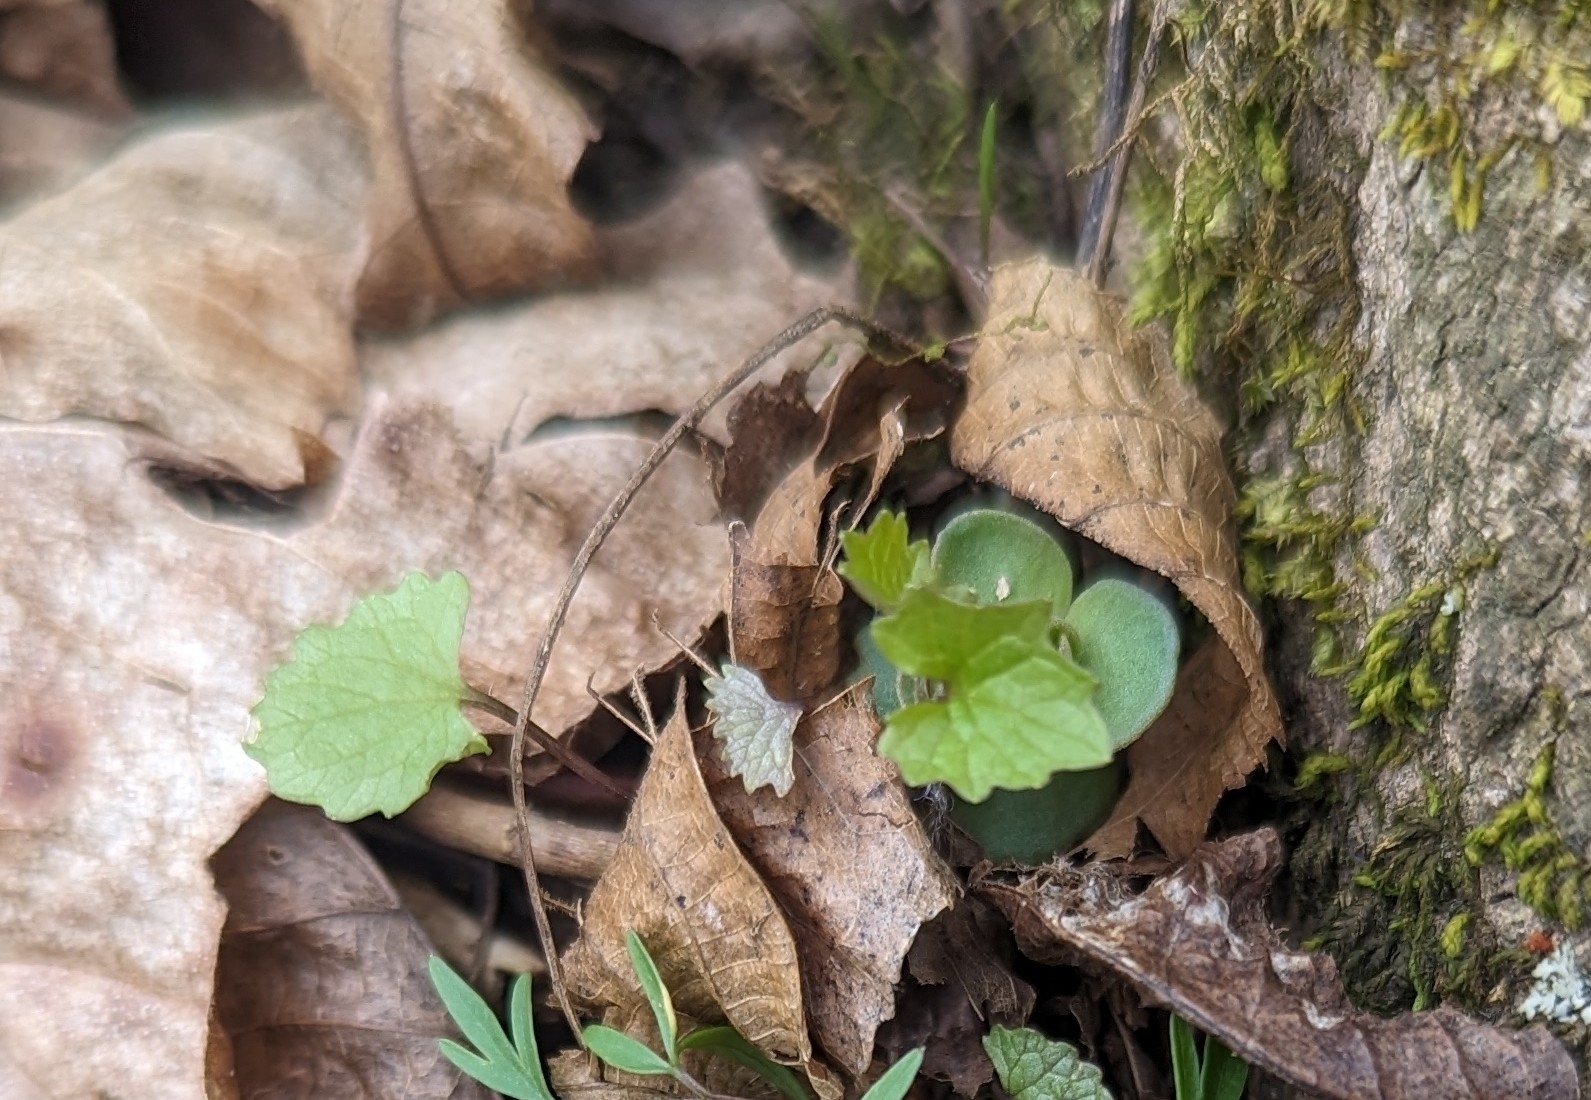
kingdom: Plantae
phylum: Tracheophyta
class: Magnoliopsida
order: Brassicales
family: Brassicaceae
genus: Alliaria
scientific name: Alliaria petiolata
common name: Garlic mustard
